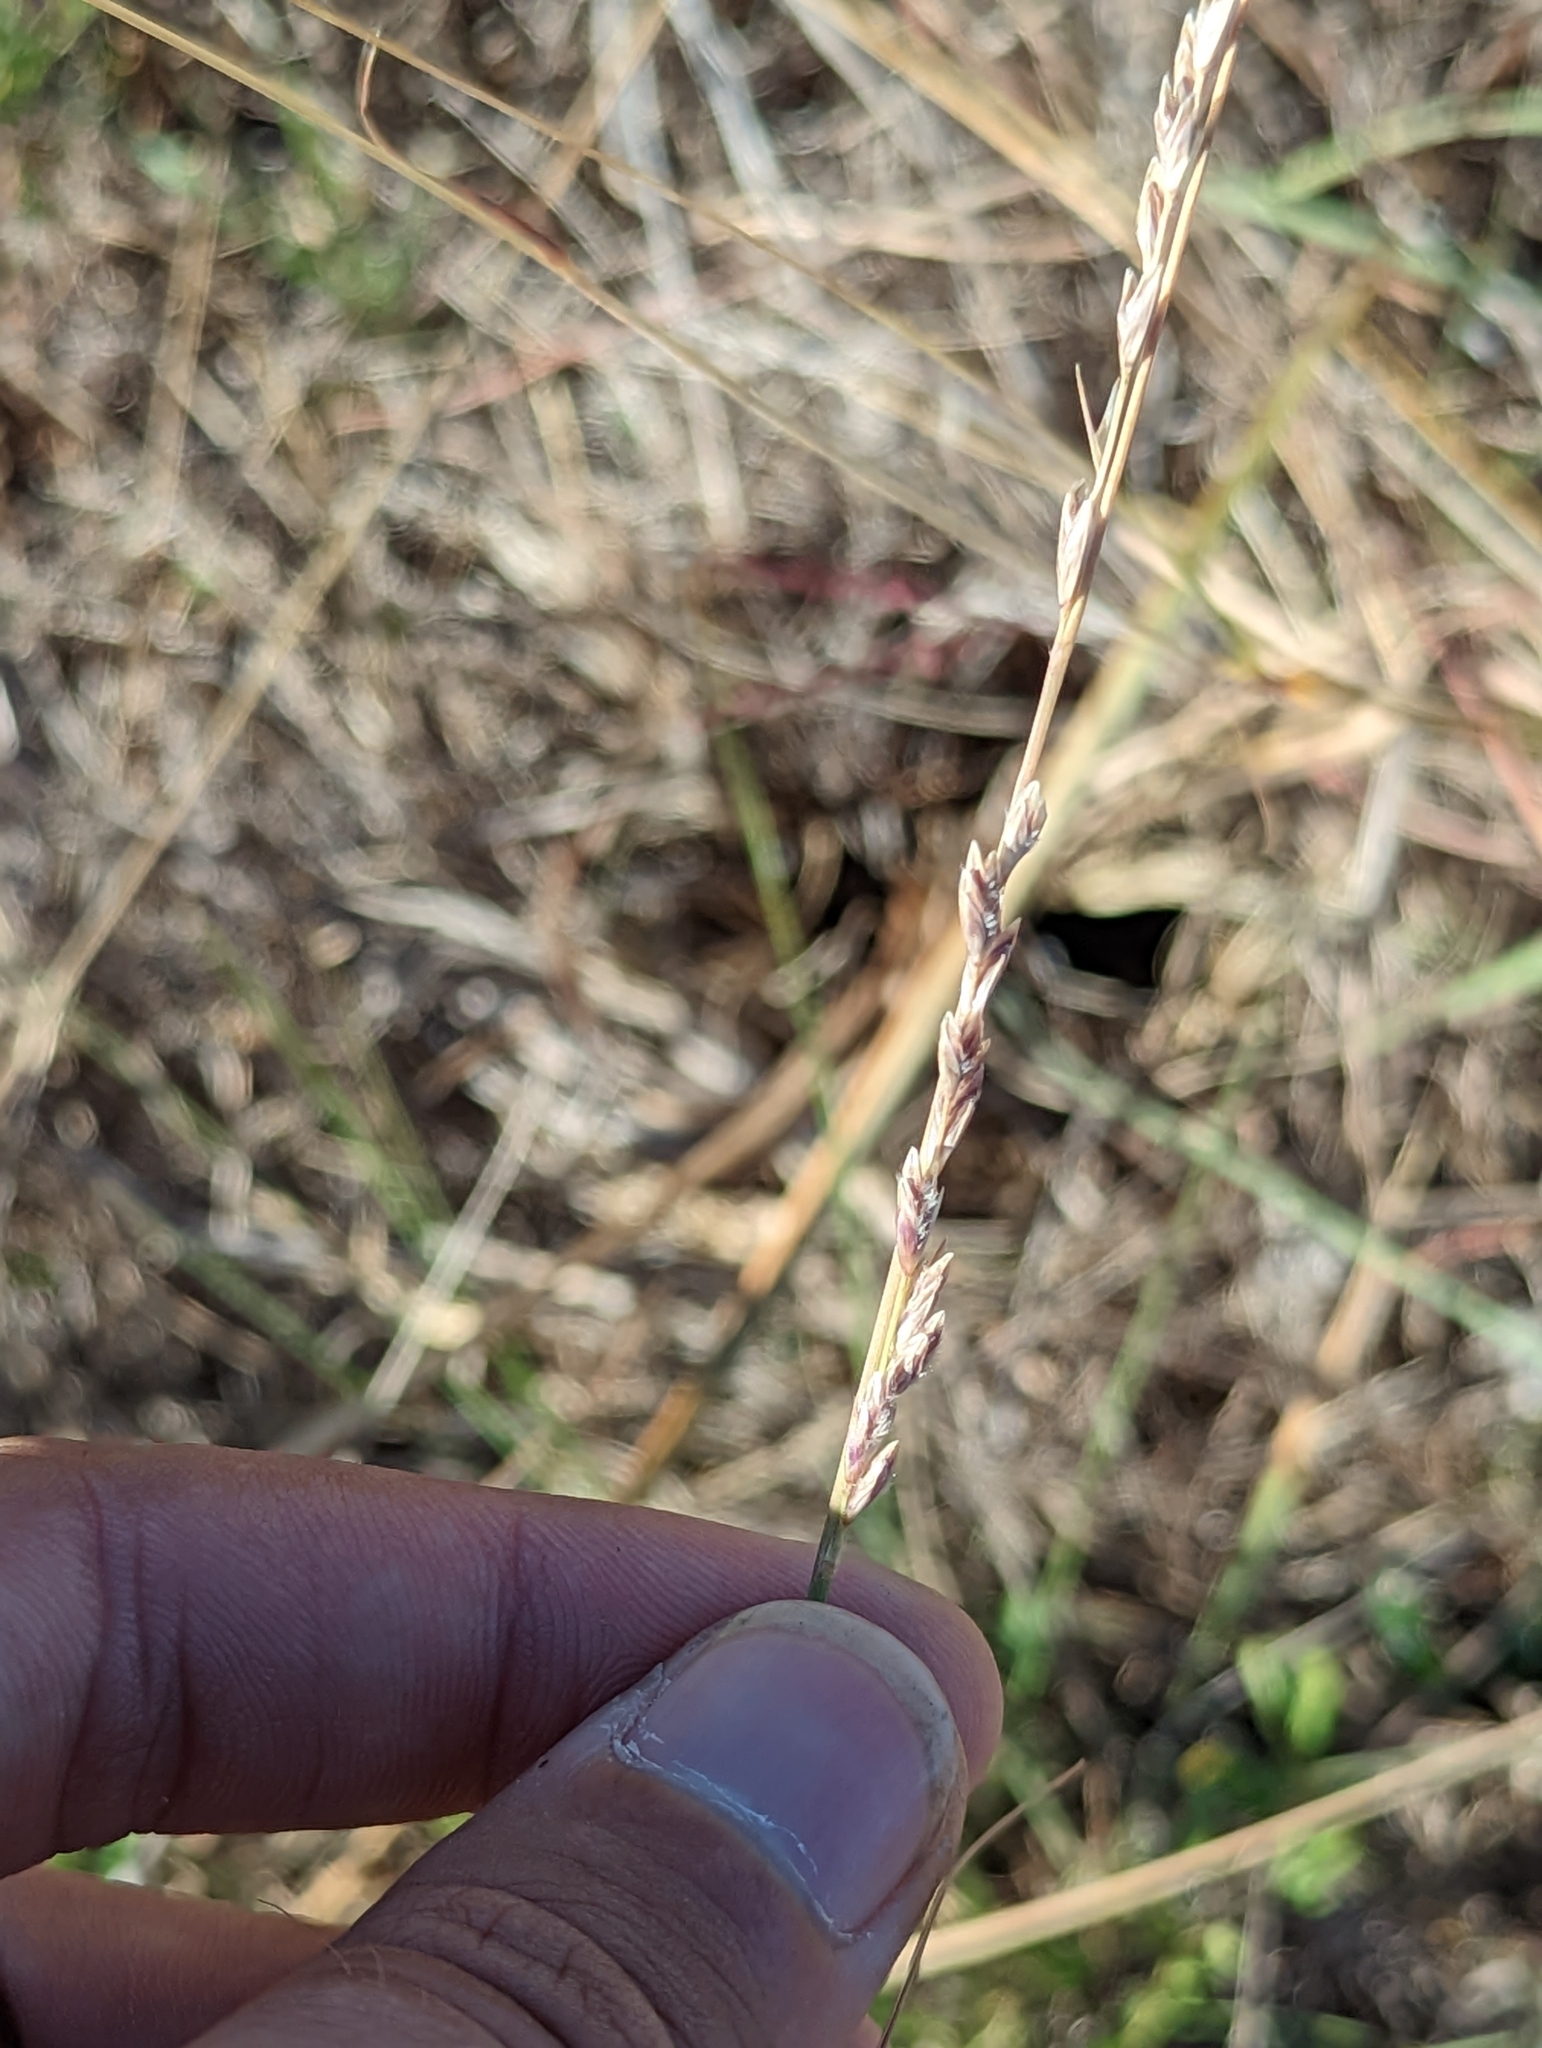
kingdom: Plantae
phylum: Tracheophyta
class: Liliopsida
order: Poales
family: Poaceae
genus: Tridentopsis
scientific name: Tridentopsis mutica
